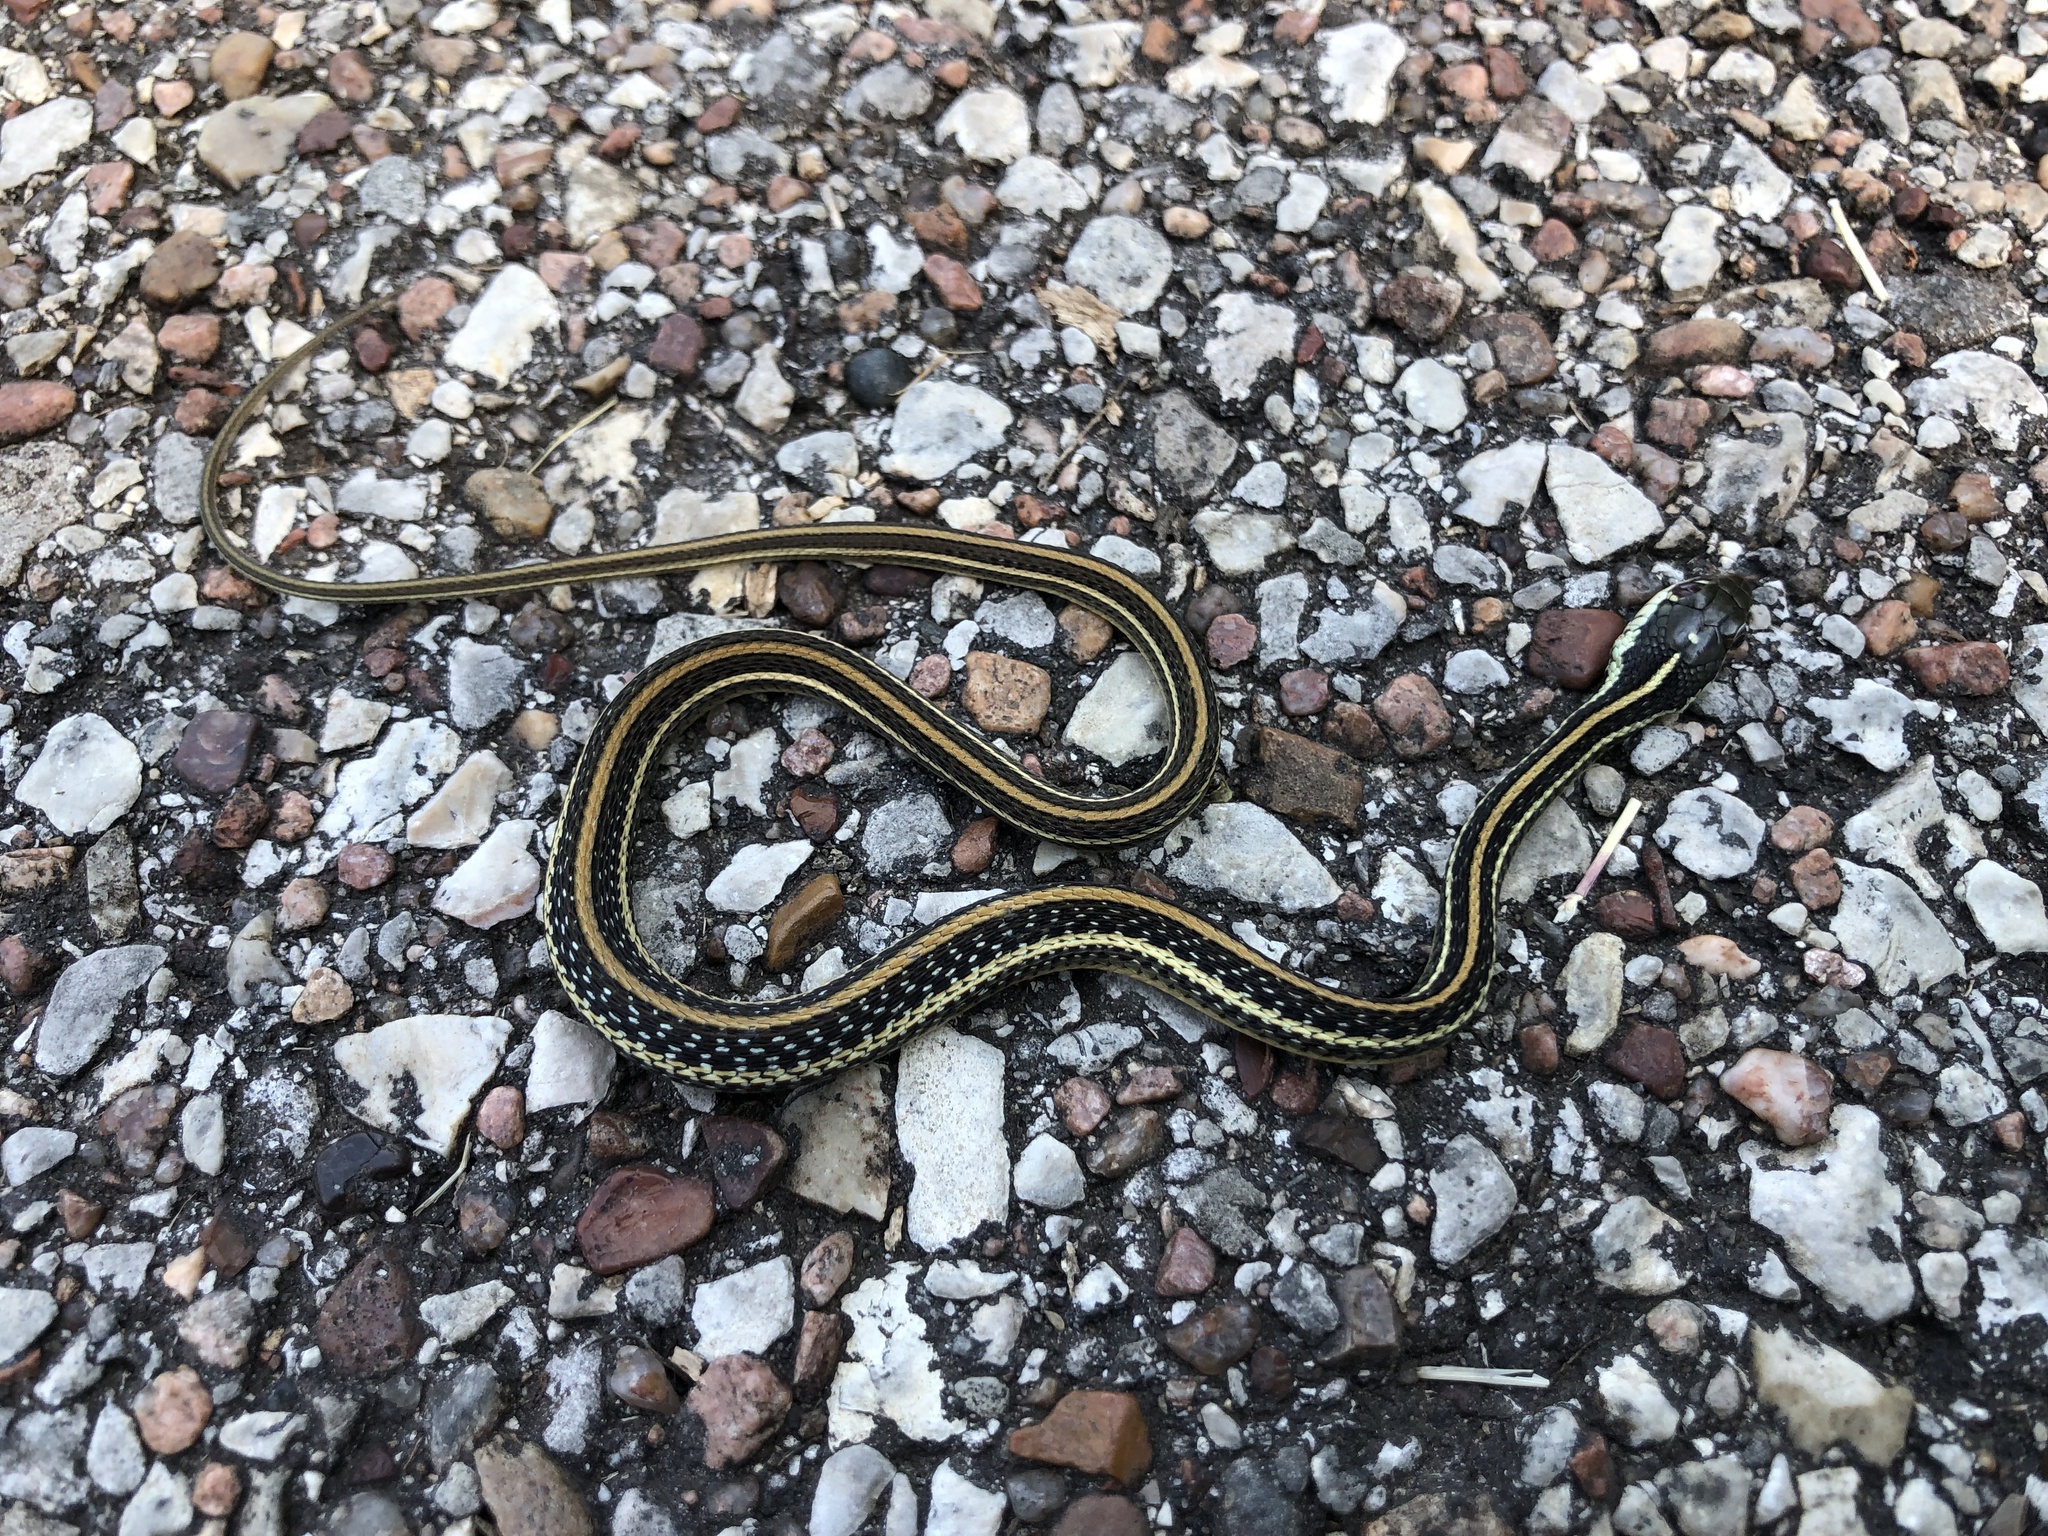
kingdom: Animalia
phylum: Chordata
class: Squamata
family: Colubridae
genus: Thamnophis
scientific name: Thamnophis proximus
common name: Western ribbon snake
